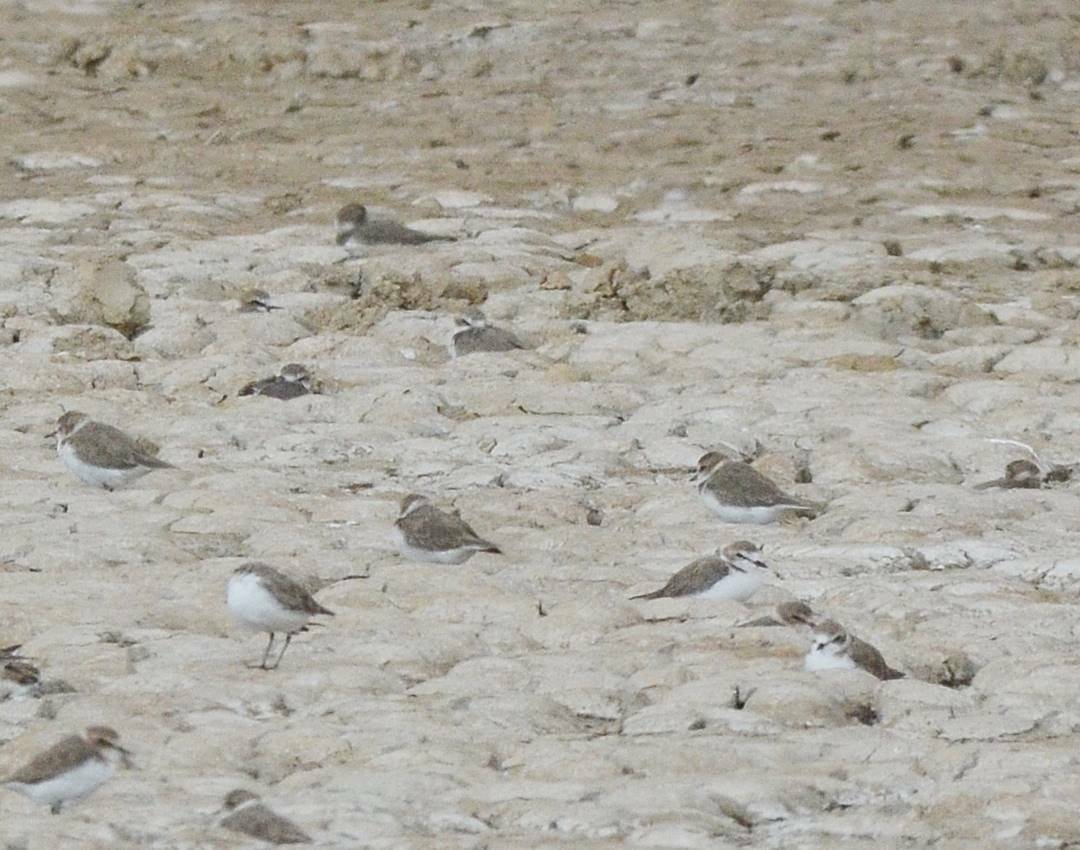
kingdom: Animalia
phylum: Chordata
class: Aves
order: Charadriiformes
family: Charadriidae
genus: Charadrius
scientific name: Charadrius alexandrinus
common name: Kentish plover
